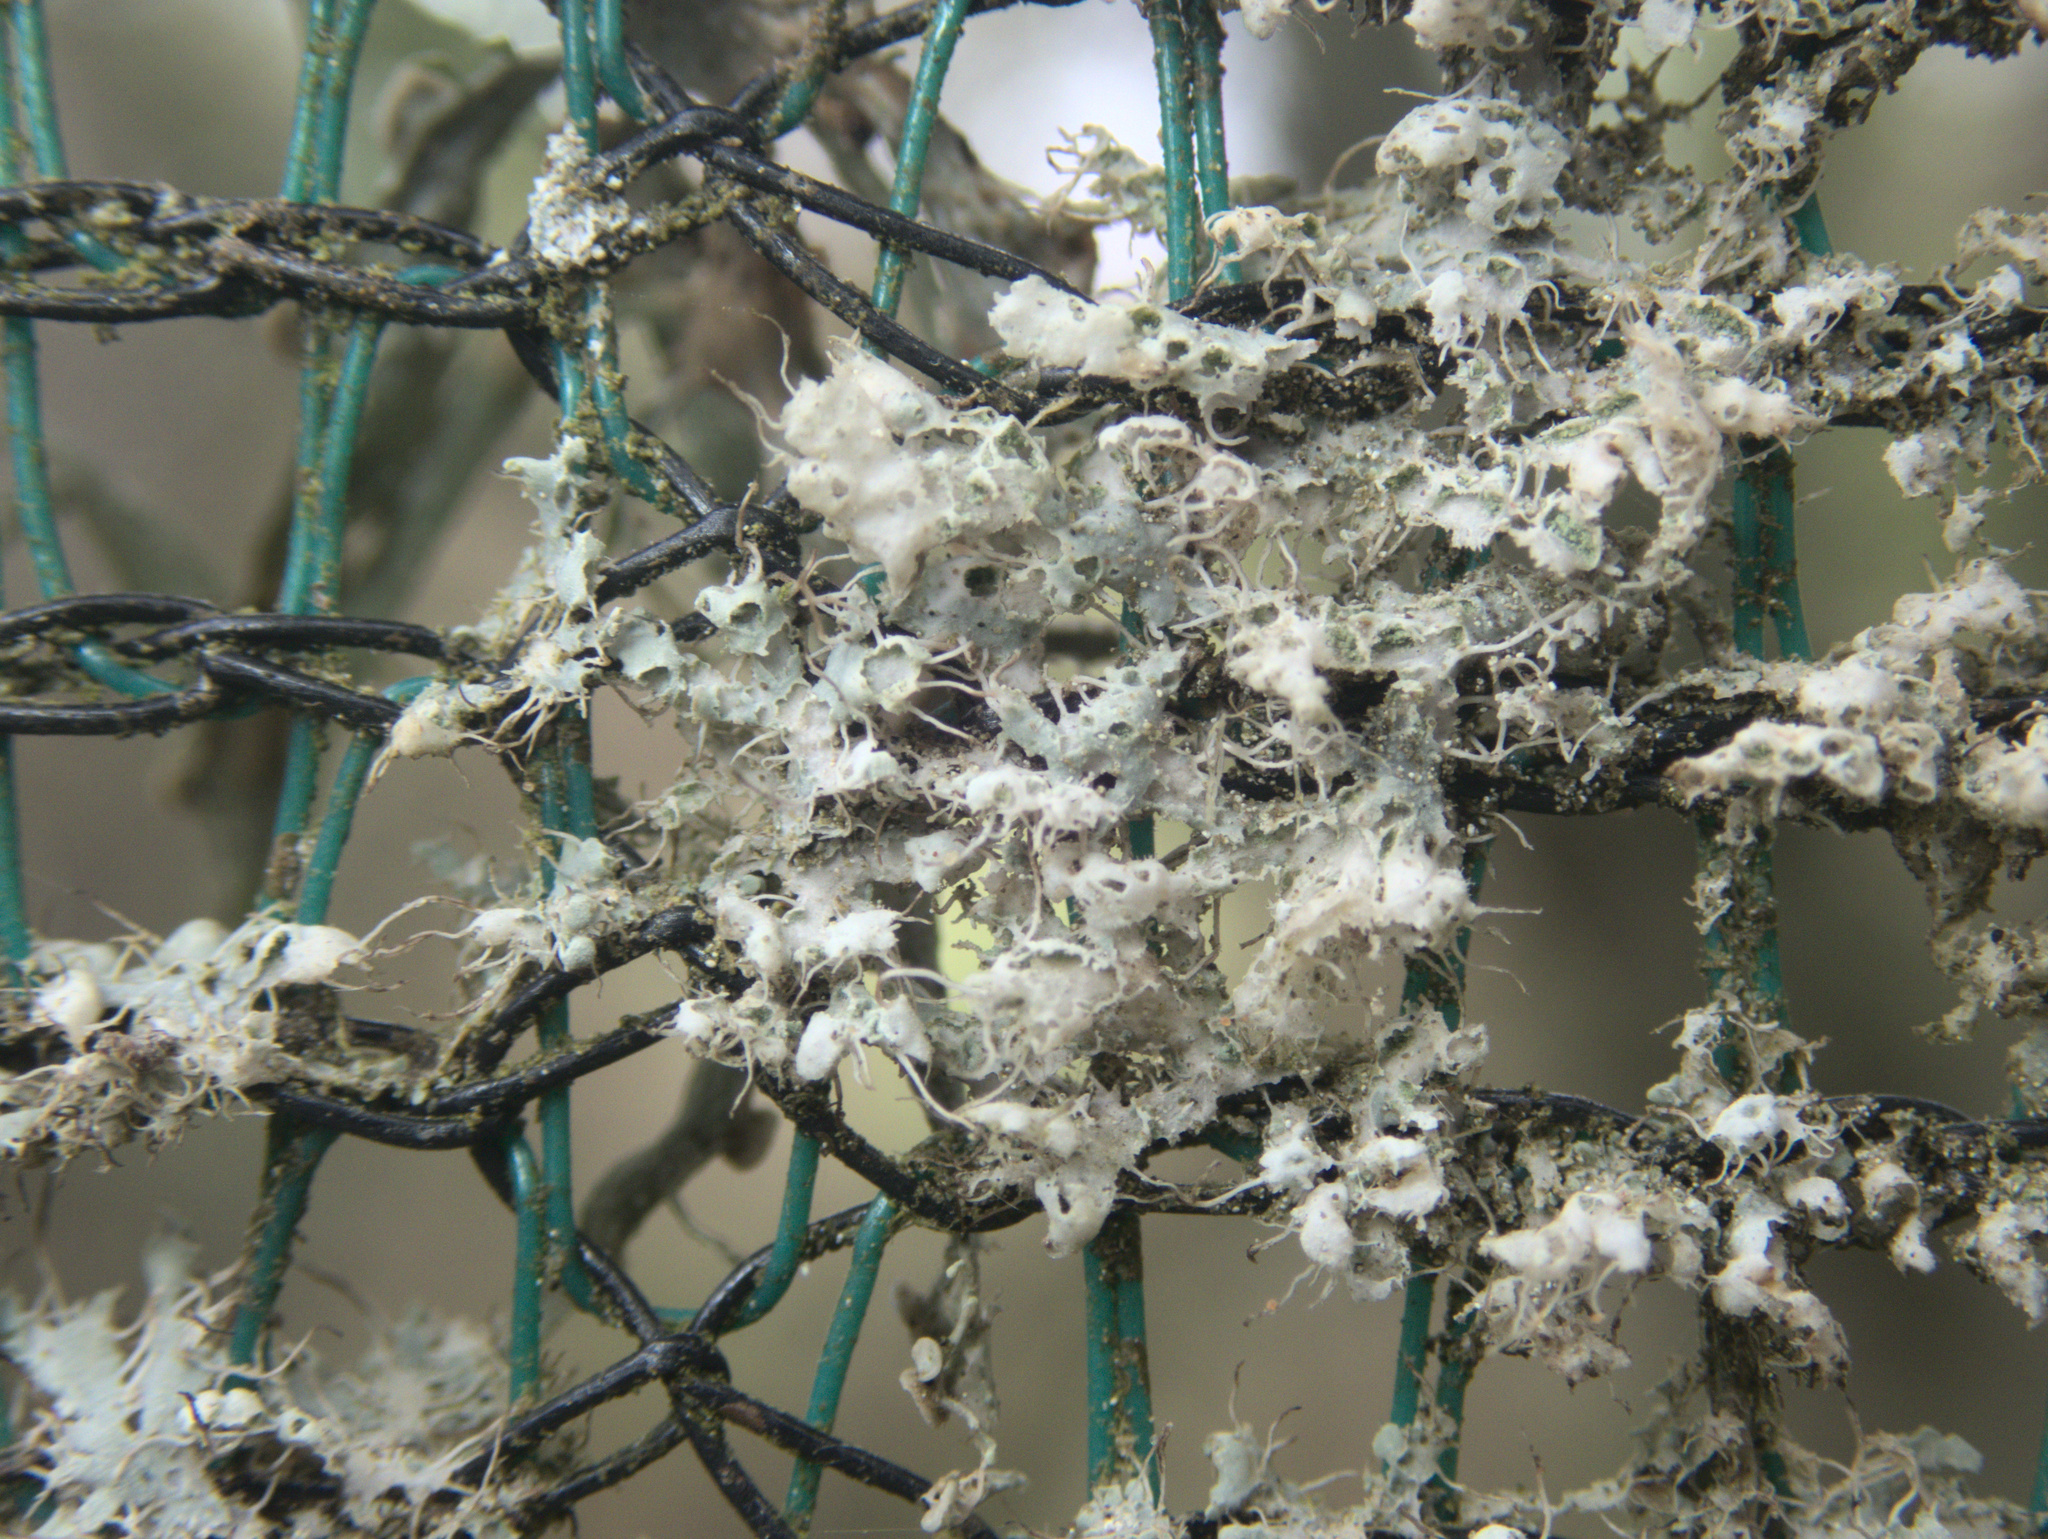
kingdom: Fungi
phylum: Ascomycota
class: Lecanoromycetes
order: Caliciales
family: Physciaceae
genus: Physcia
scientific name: Physcia adscendens
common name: Hooded rosette lichen
